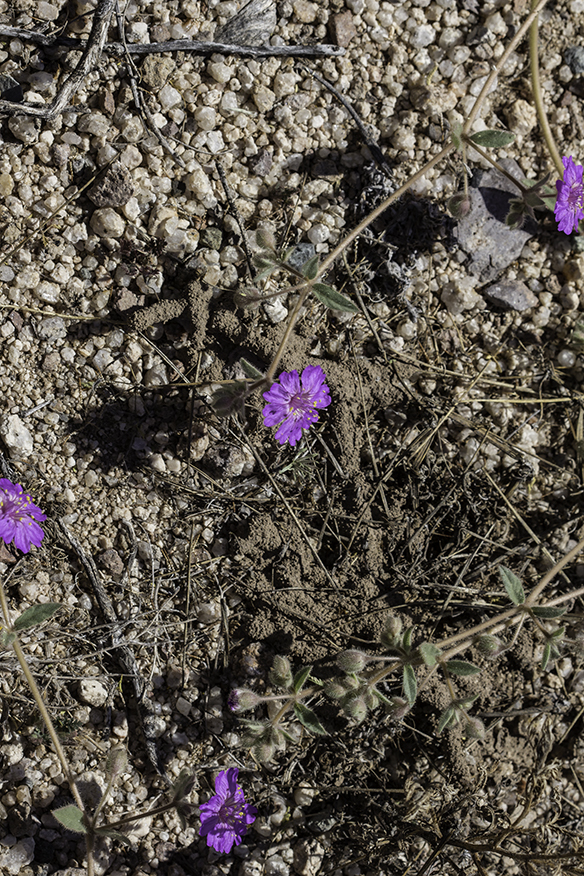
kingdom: Plantae
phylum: Tracheophyta
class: Magnoliopsida
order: Caryophyllales
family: Nyctaginaceae
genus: Allionia
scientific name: Allionia incarnata
